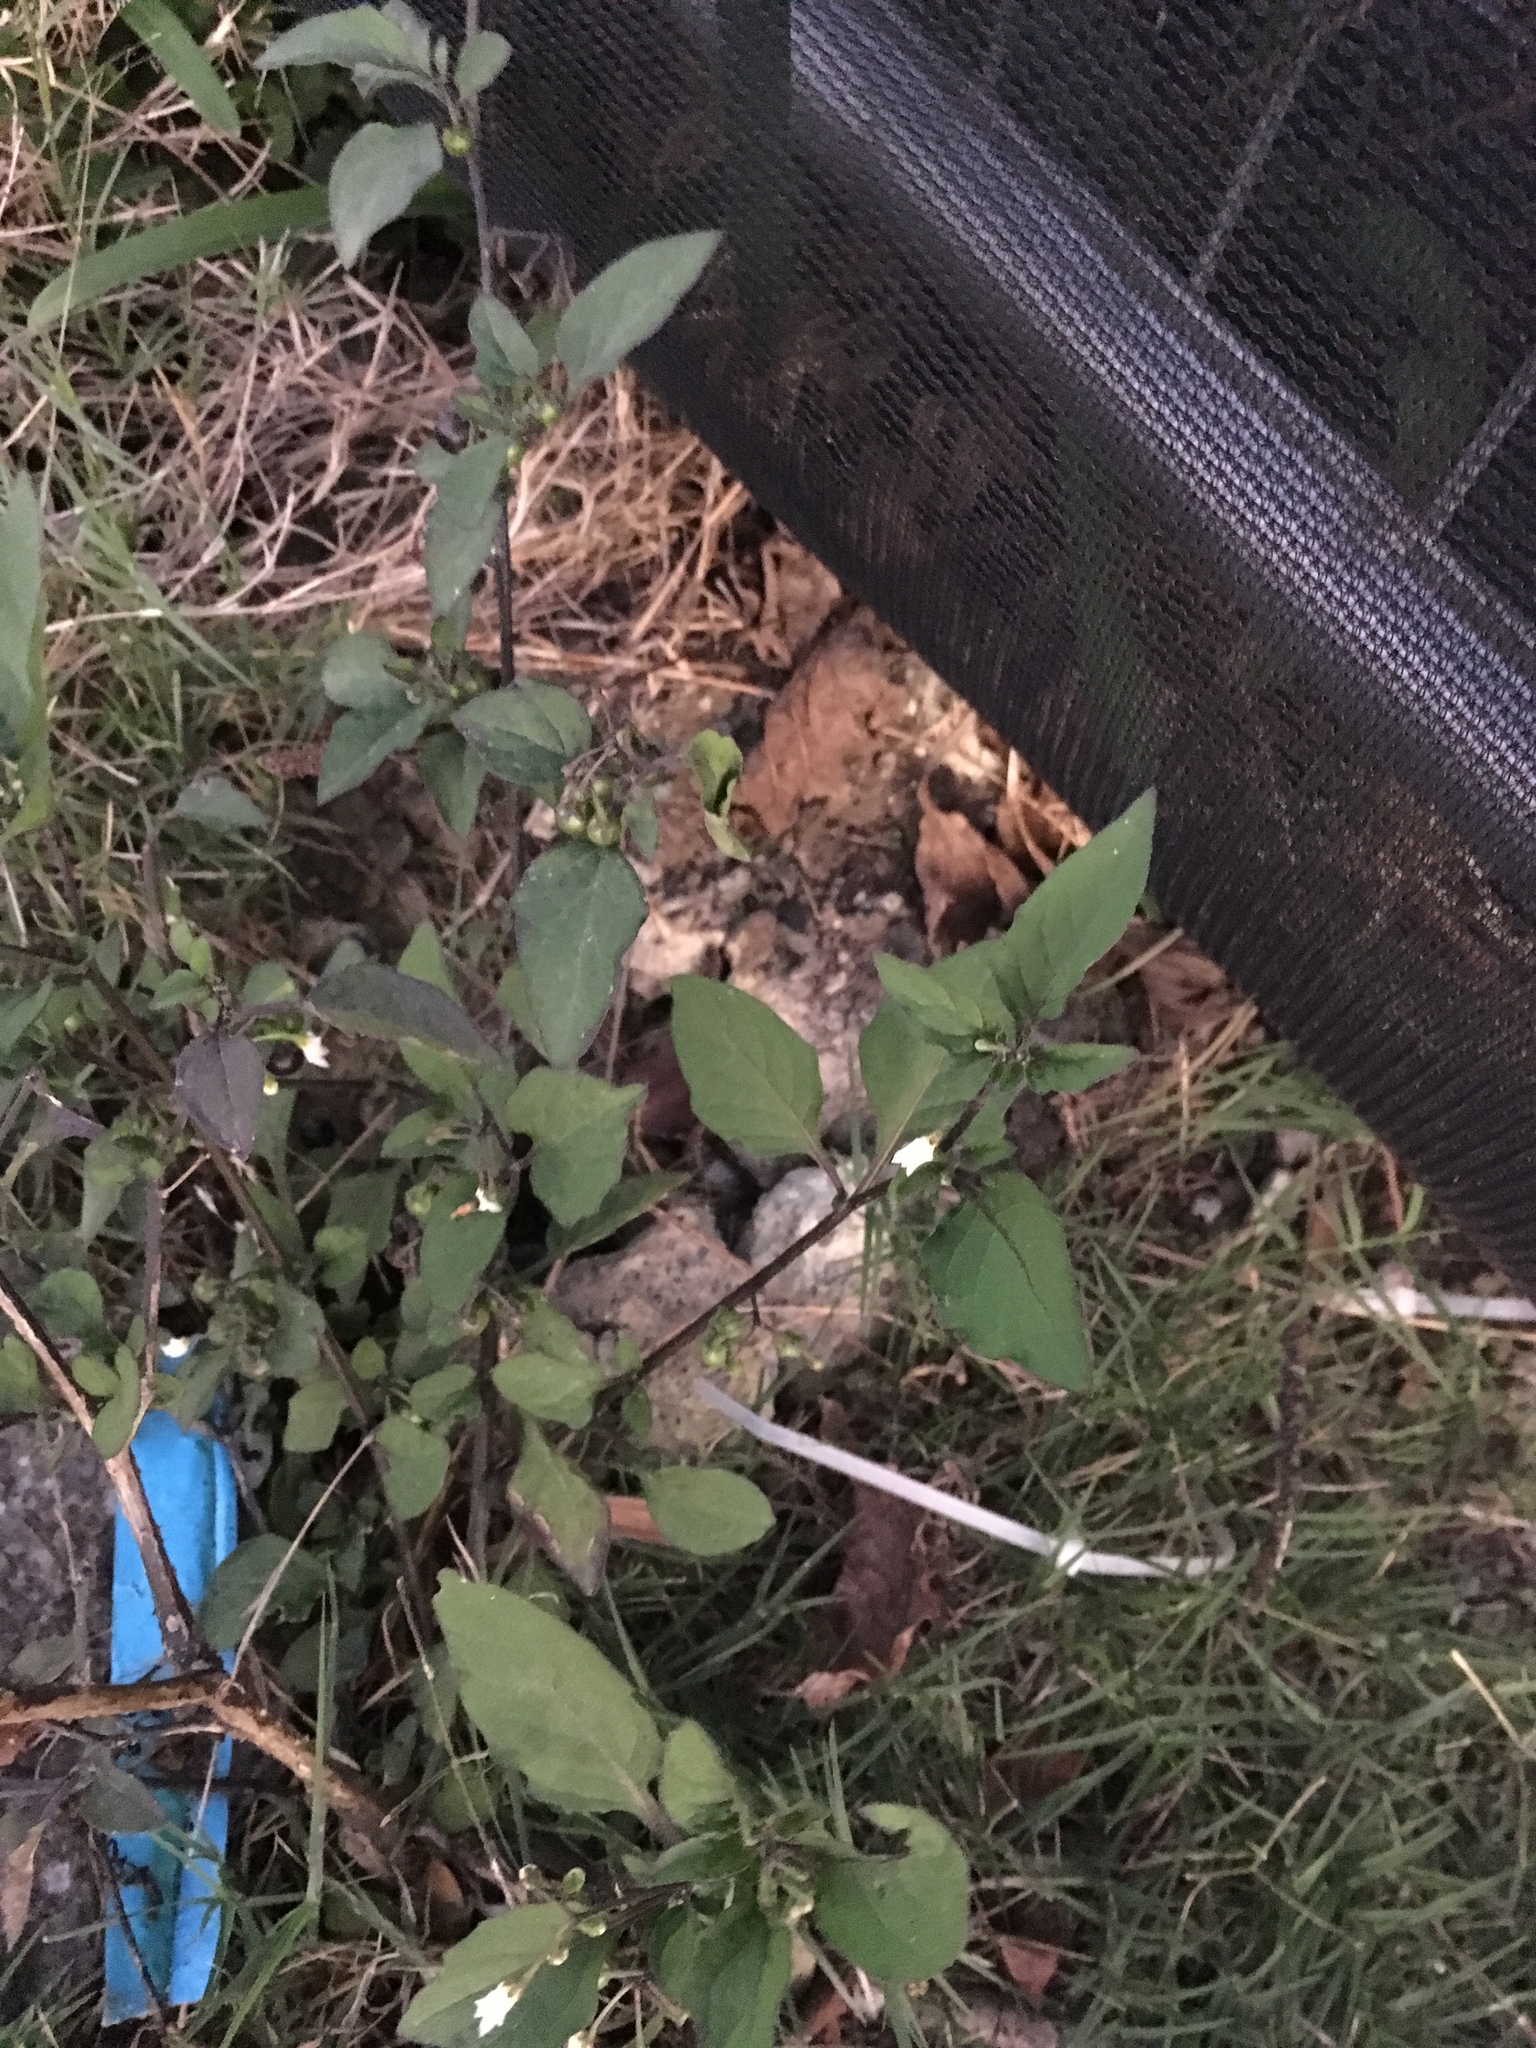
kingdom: Plantae
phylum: Tracheophyta
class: Magnoliopsida
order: Solanales
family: Solanaceae
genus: Solanum
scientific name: Solanum nigrum
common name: Black nightshade
